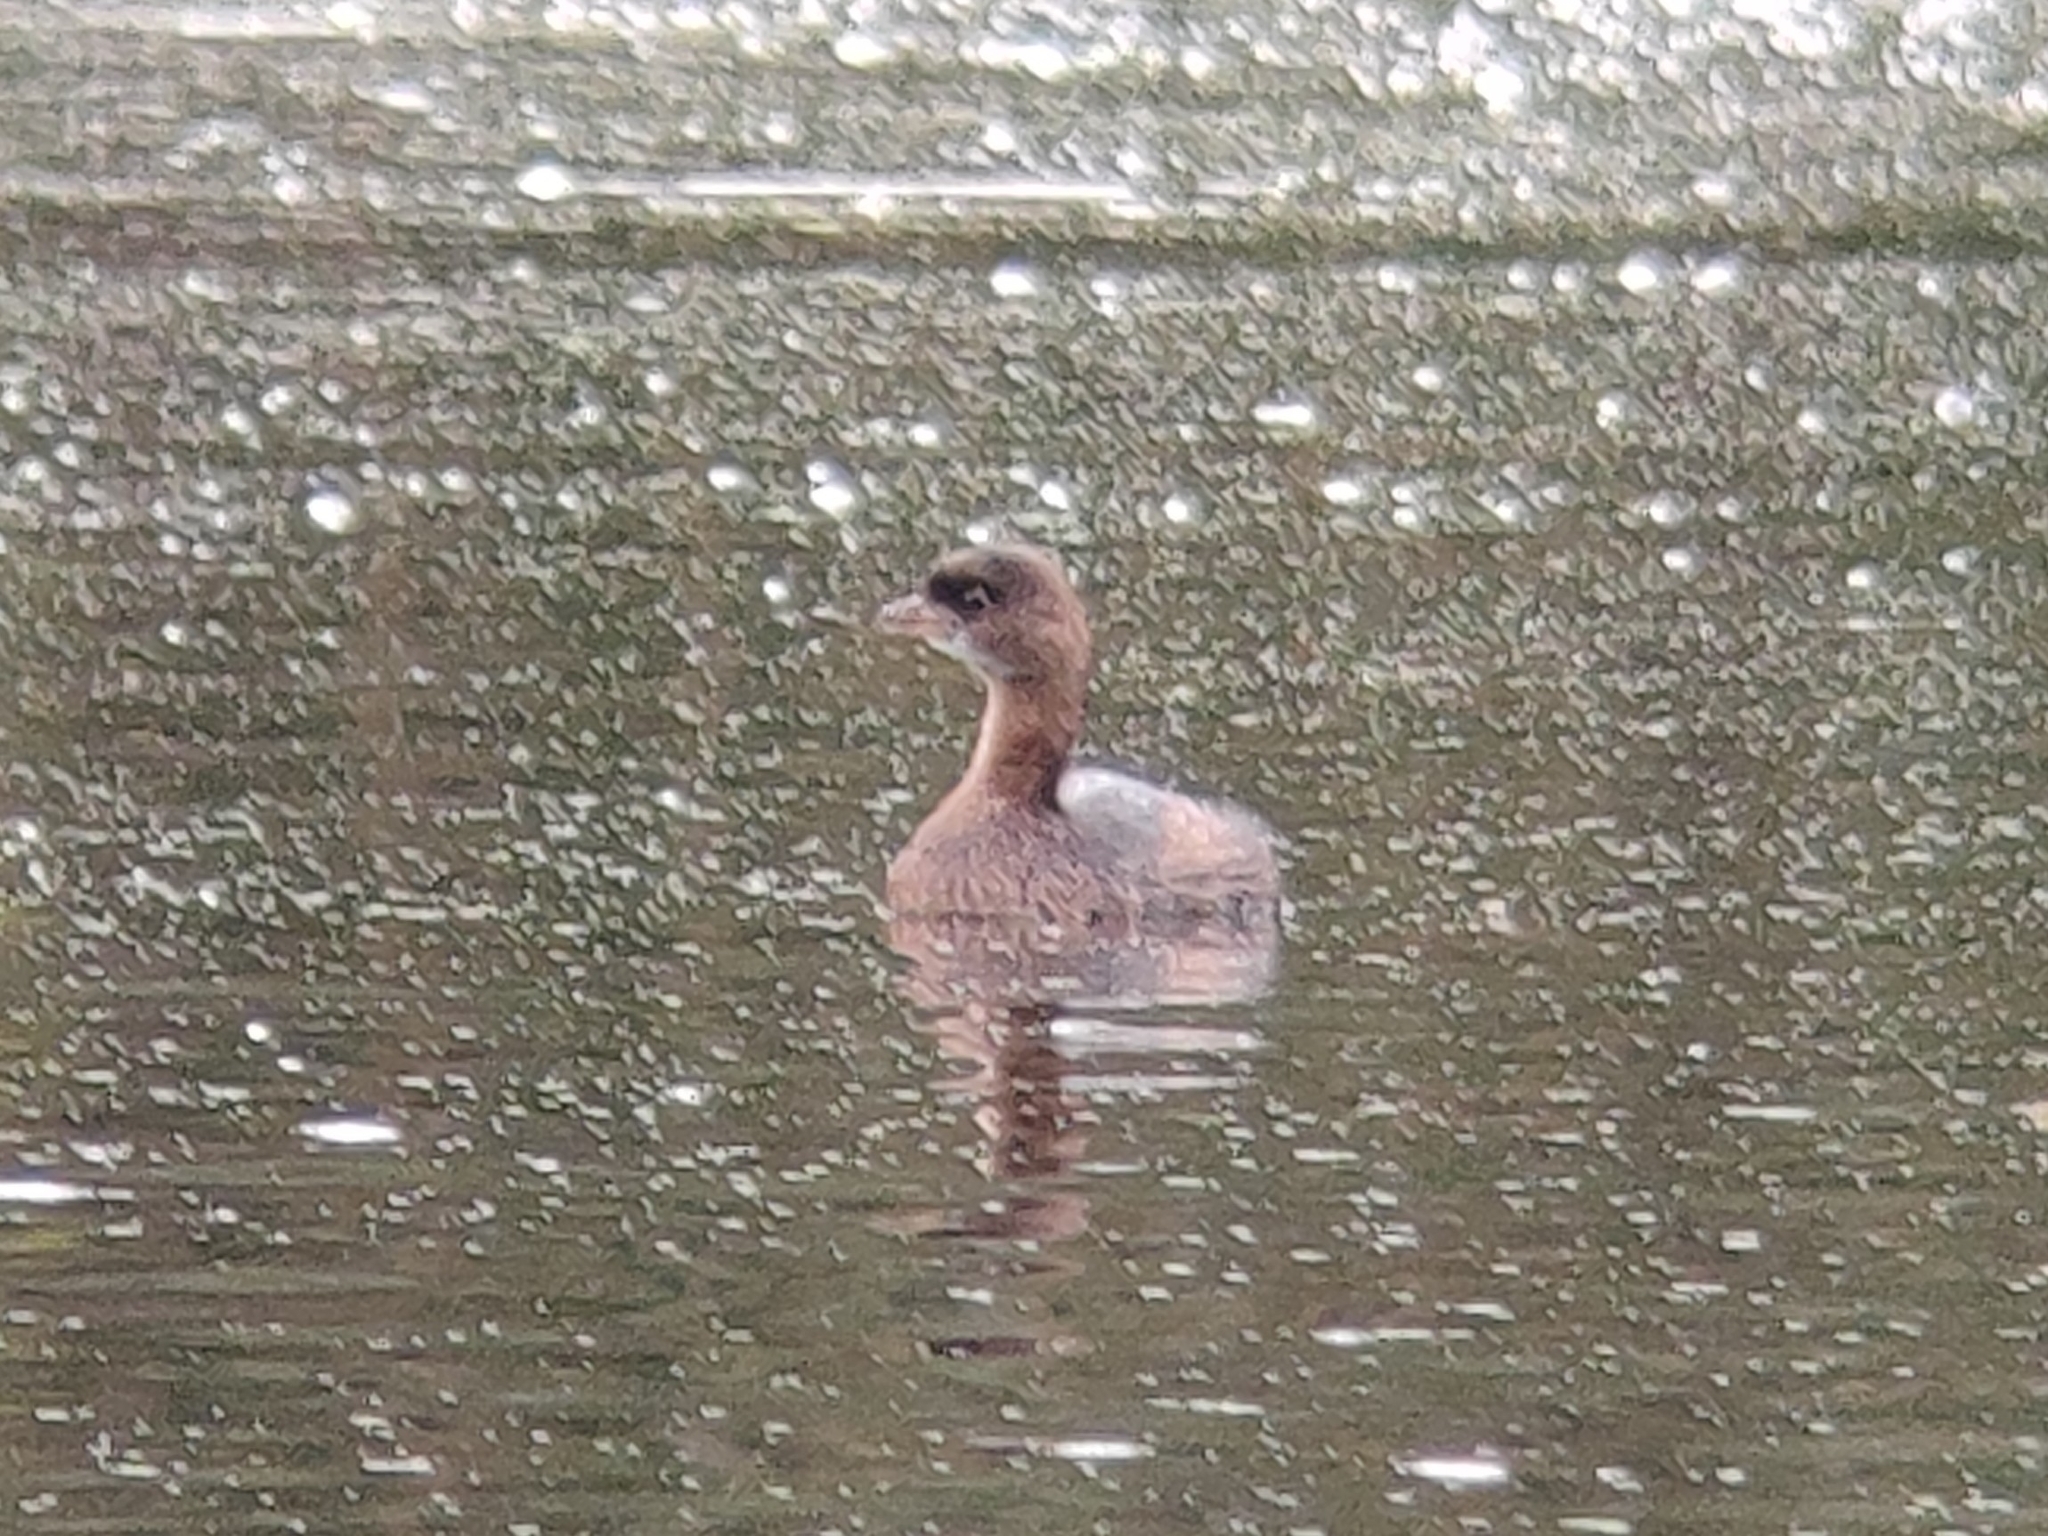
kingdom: Animalia
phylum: Chordata
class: Aves
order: Podicipediformes
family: Podicipedidae
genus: Podilymbus
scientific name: Podilymbus podiceps
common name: Pied-billed grebe
